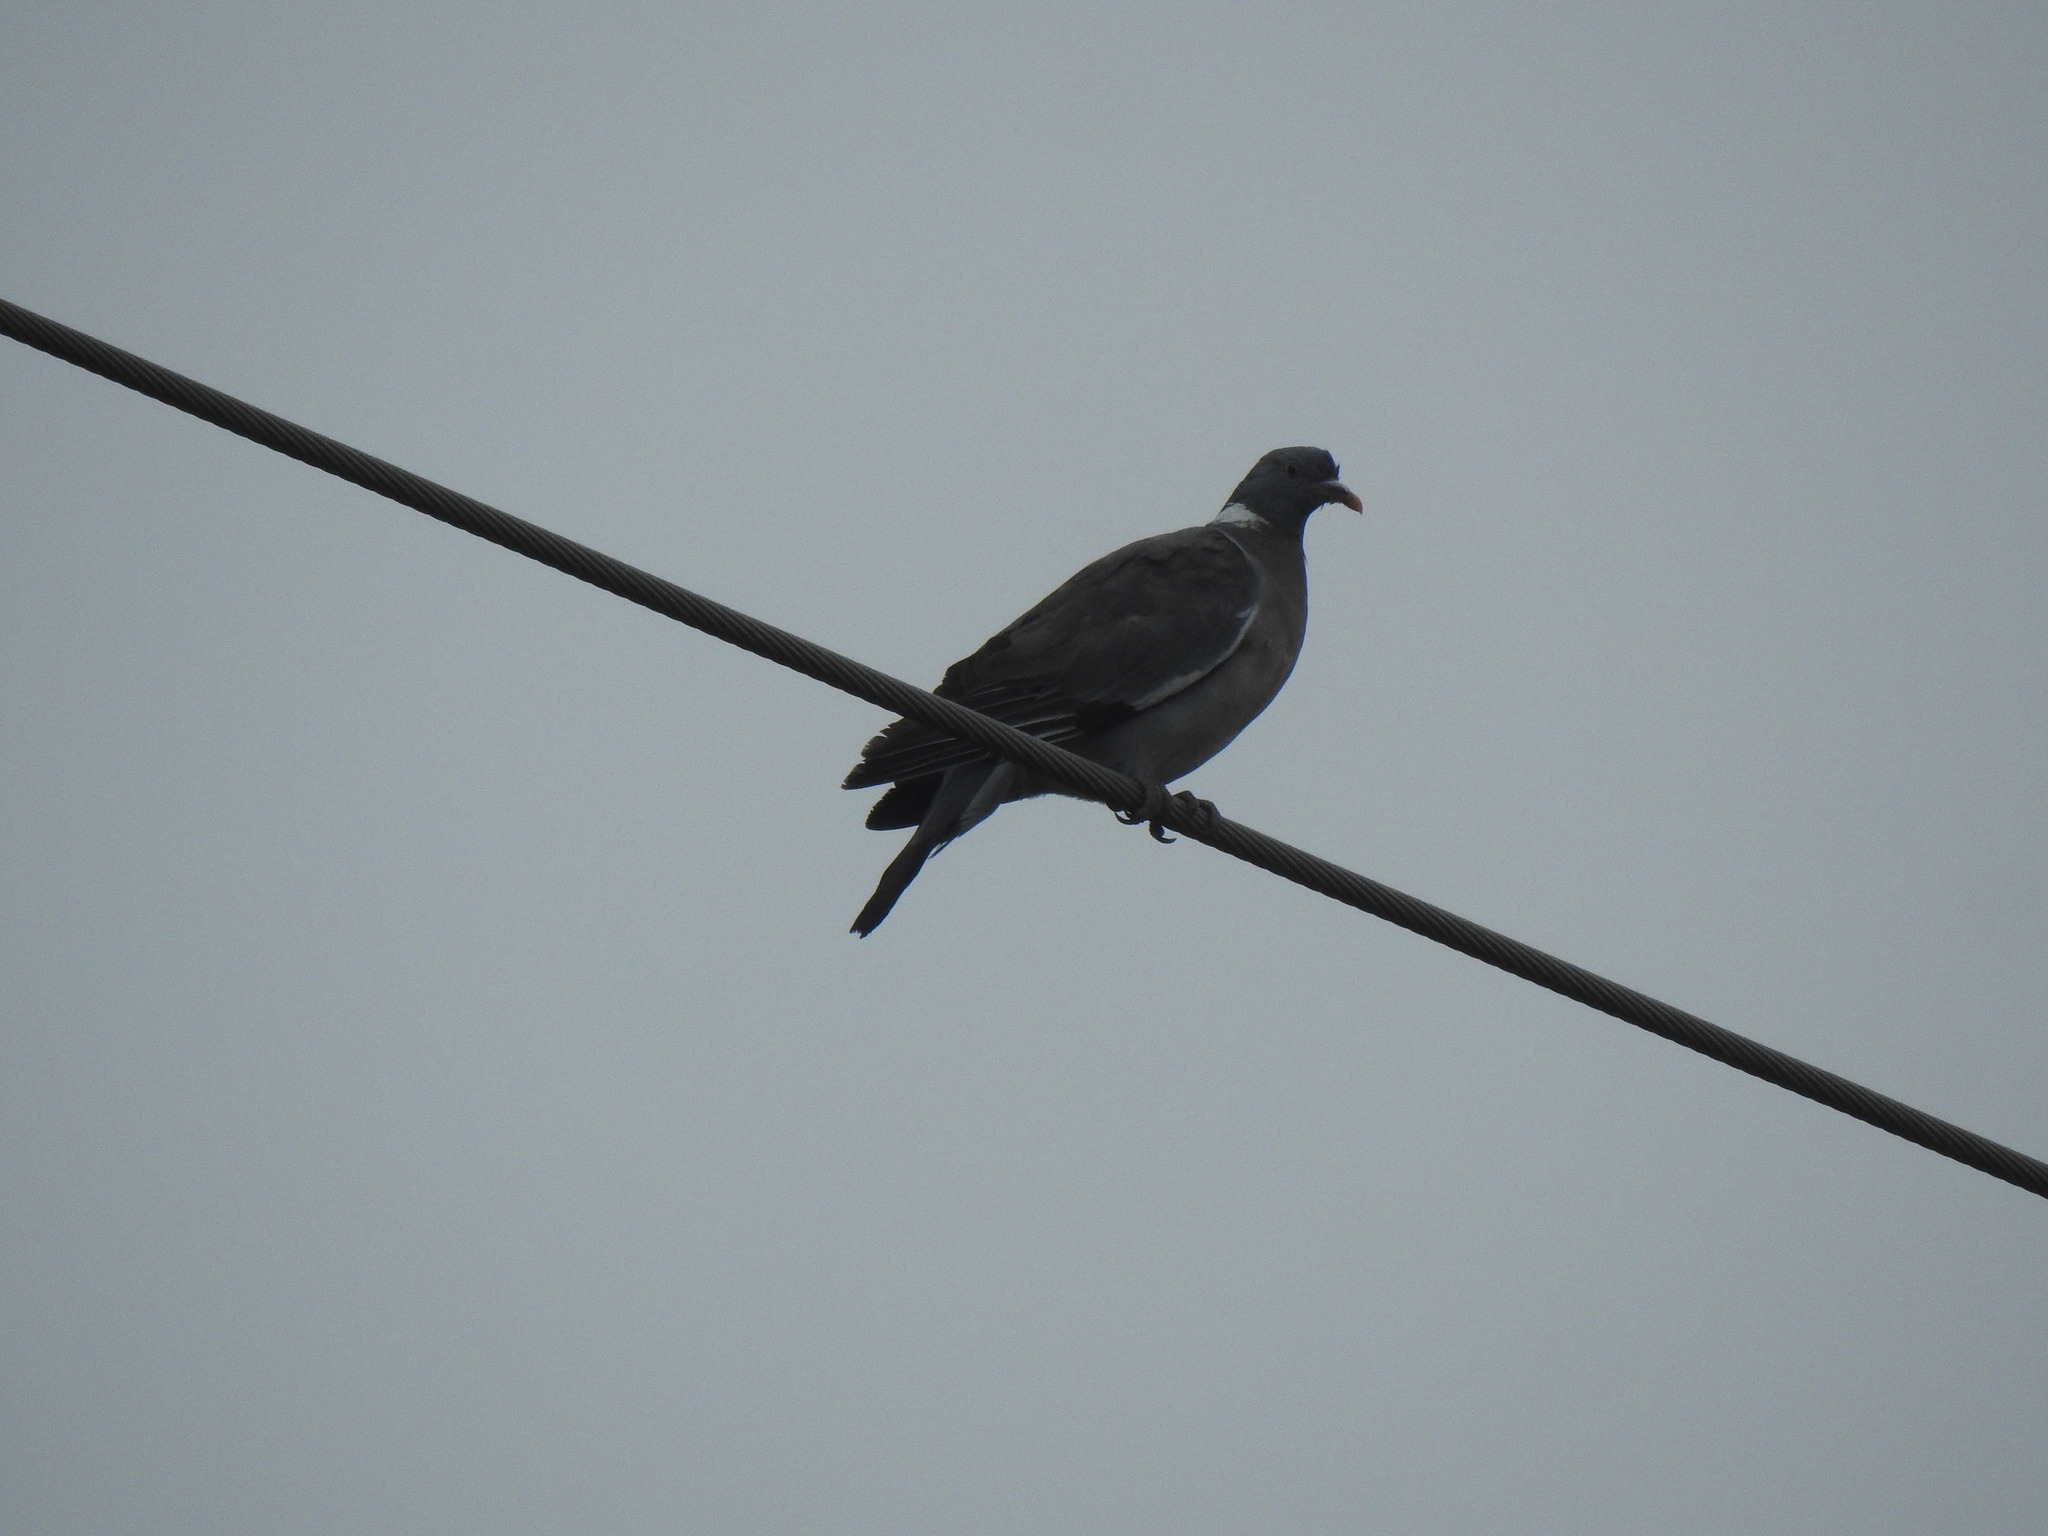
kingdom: Animalia
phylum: Chordata
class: Aves
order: Columbiformes
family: Columbidae
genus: Columba
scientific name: Columba palumbus
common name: Common wood pigeon
